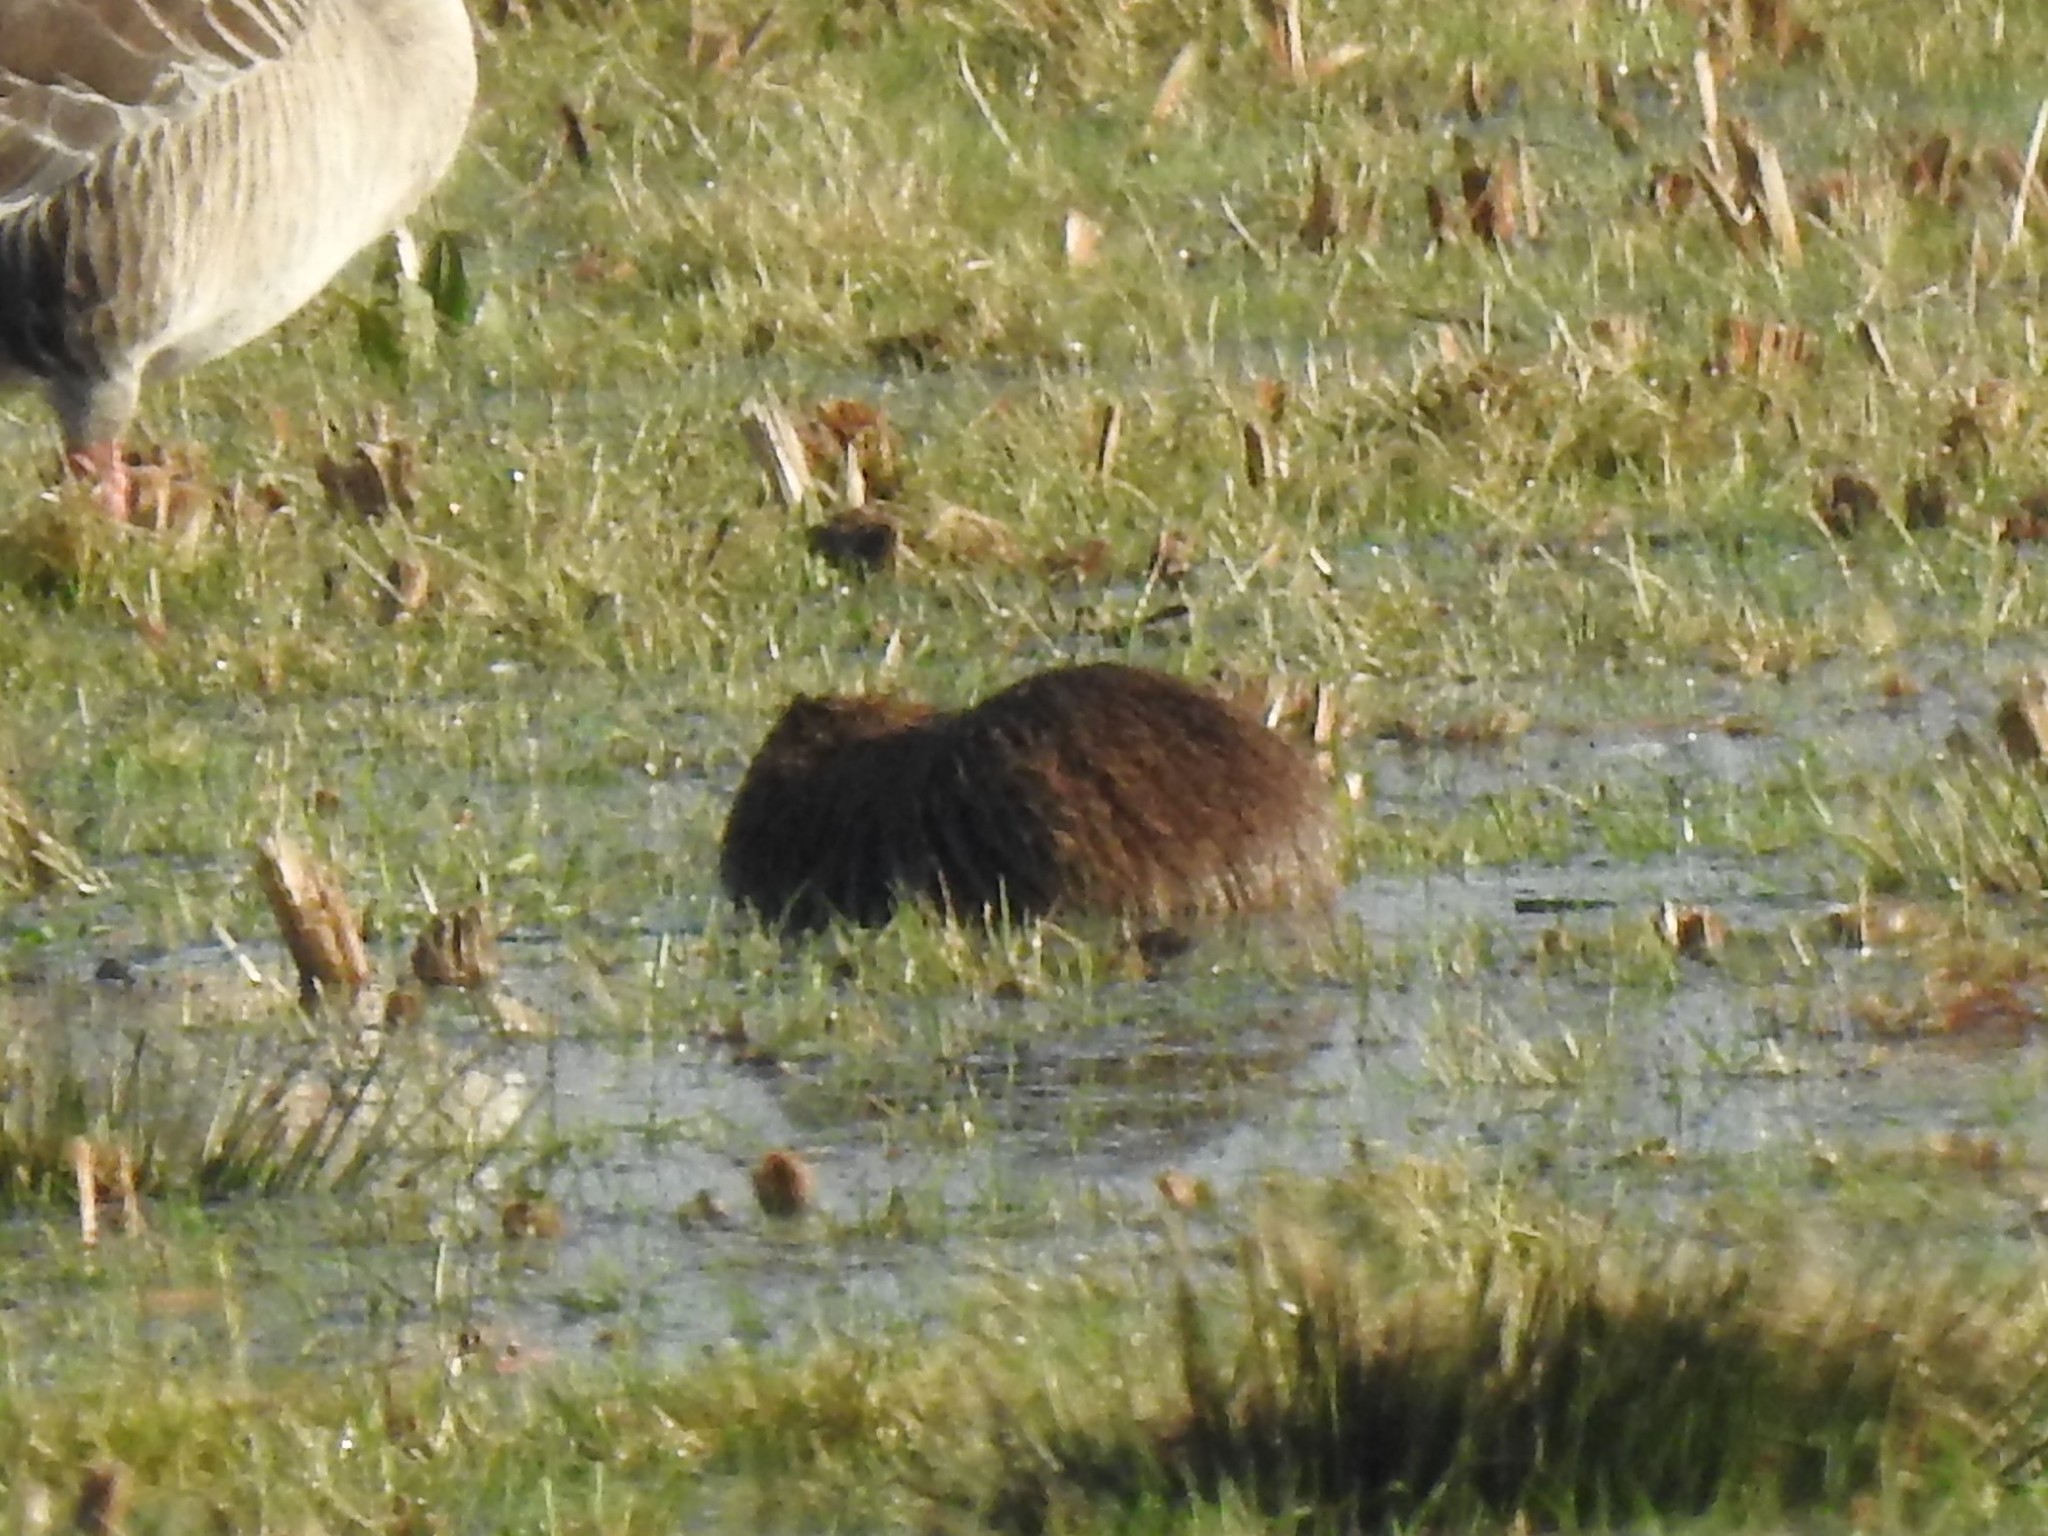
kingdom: Animalia
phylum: Chordata
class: Mammalia
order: Rodentia
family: Myocastoridae
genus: Myocastor
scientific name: Myocastor coypus
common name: Coypu
